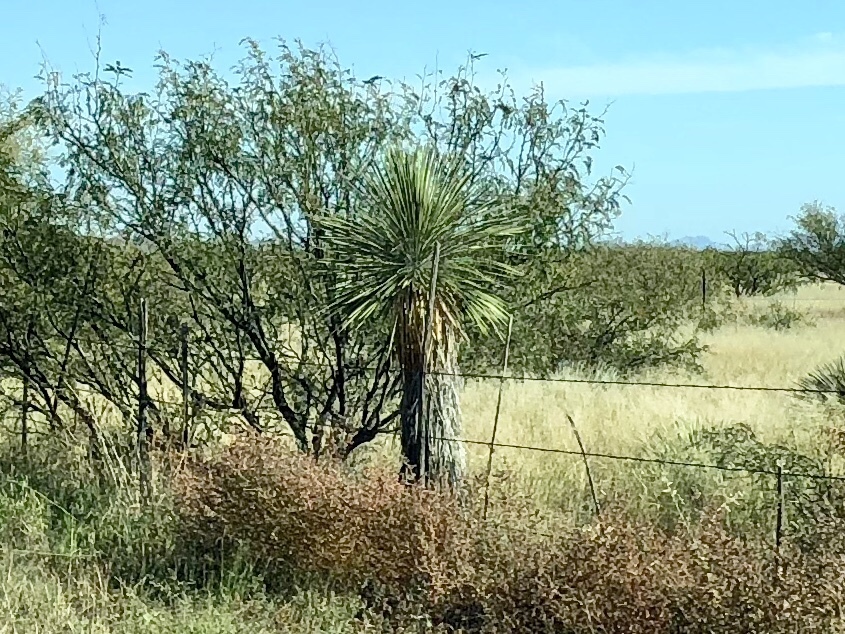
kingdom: Plantae
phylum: Tracheophyta
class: Liliopsida
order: Asparagales
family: Asparagaceae
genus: Yucca
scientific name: Yucca elata
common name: Palmella
